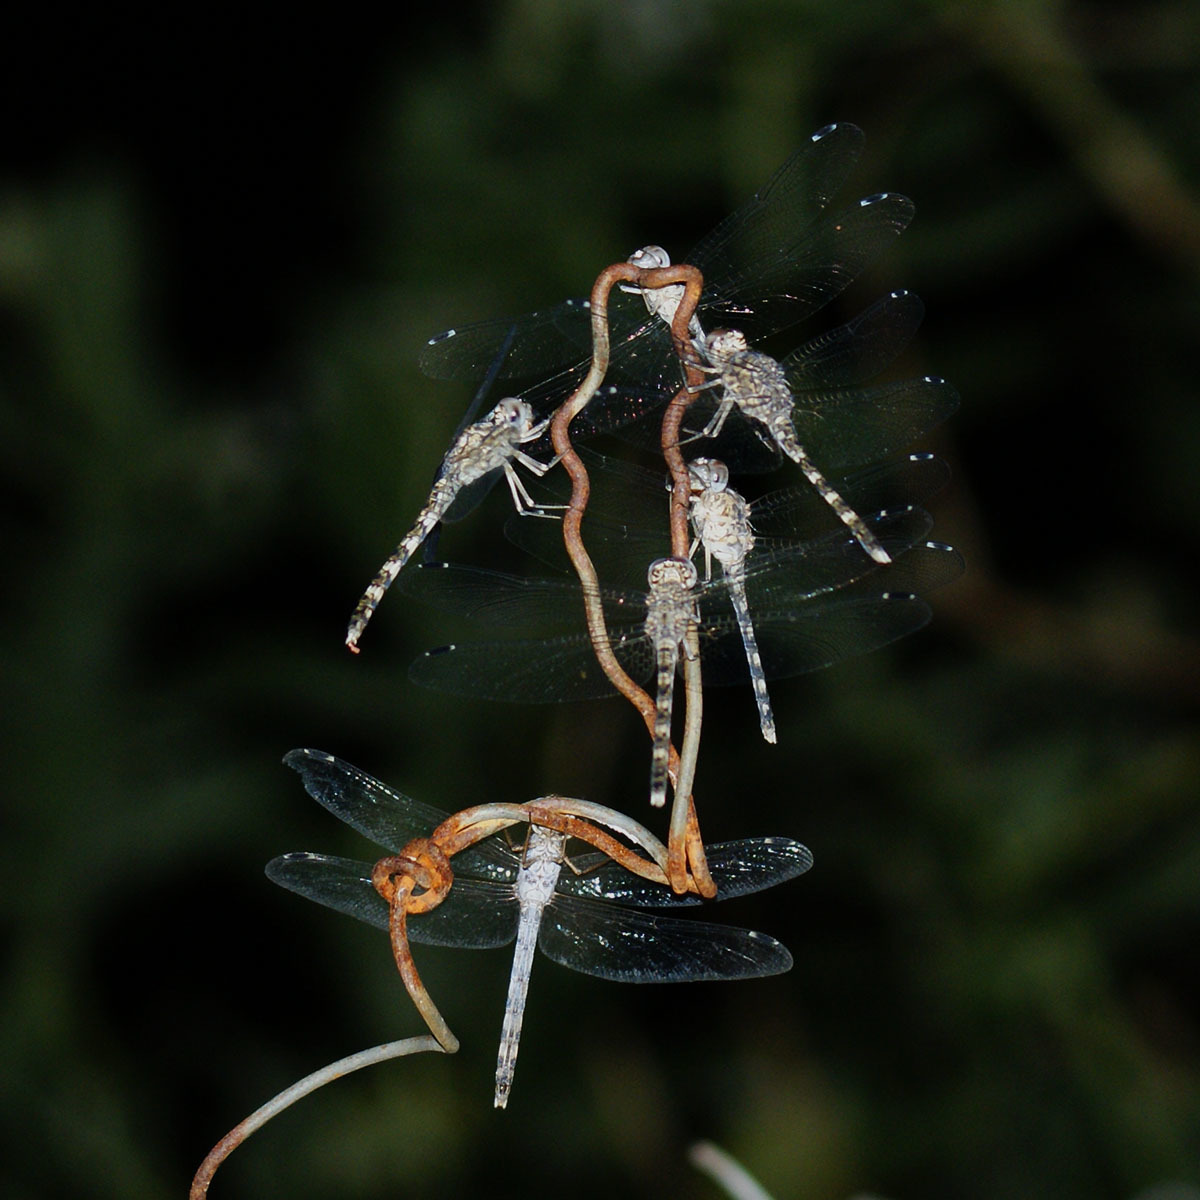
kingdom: Animalia
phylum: Arthropoda
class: Insecta
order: Odonata
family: Libellulidae
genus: Bradinopyga
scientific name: Bradinopyga geminata
